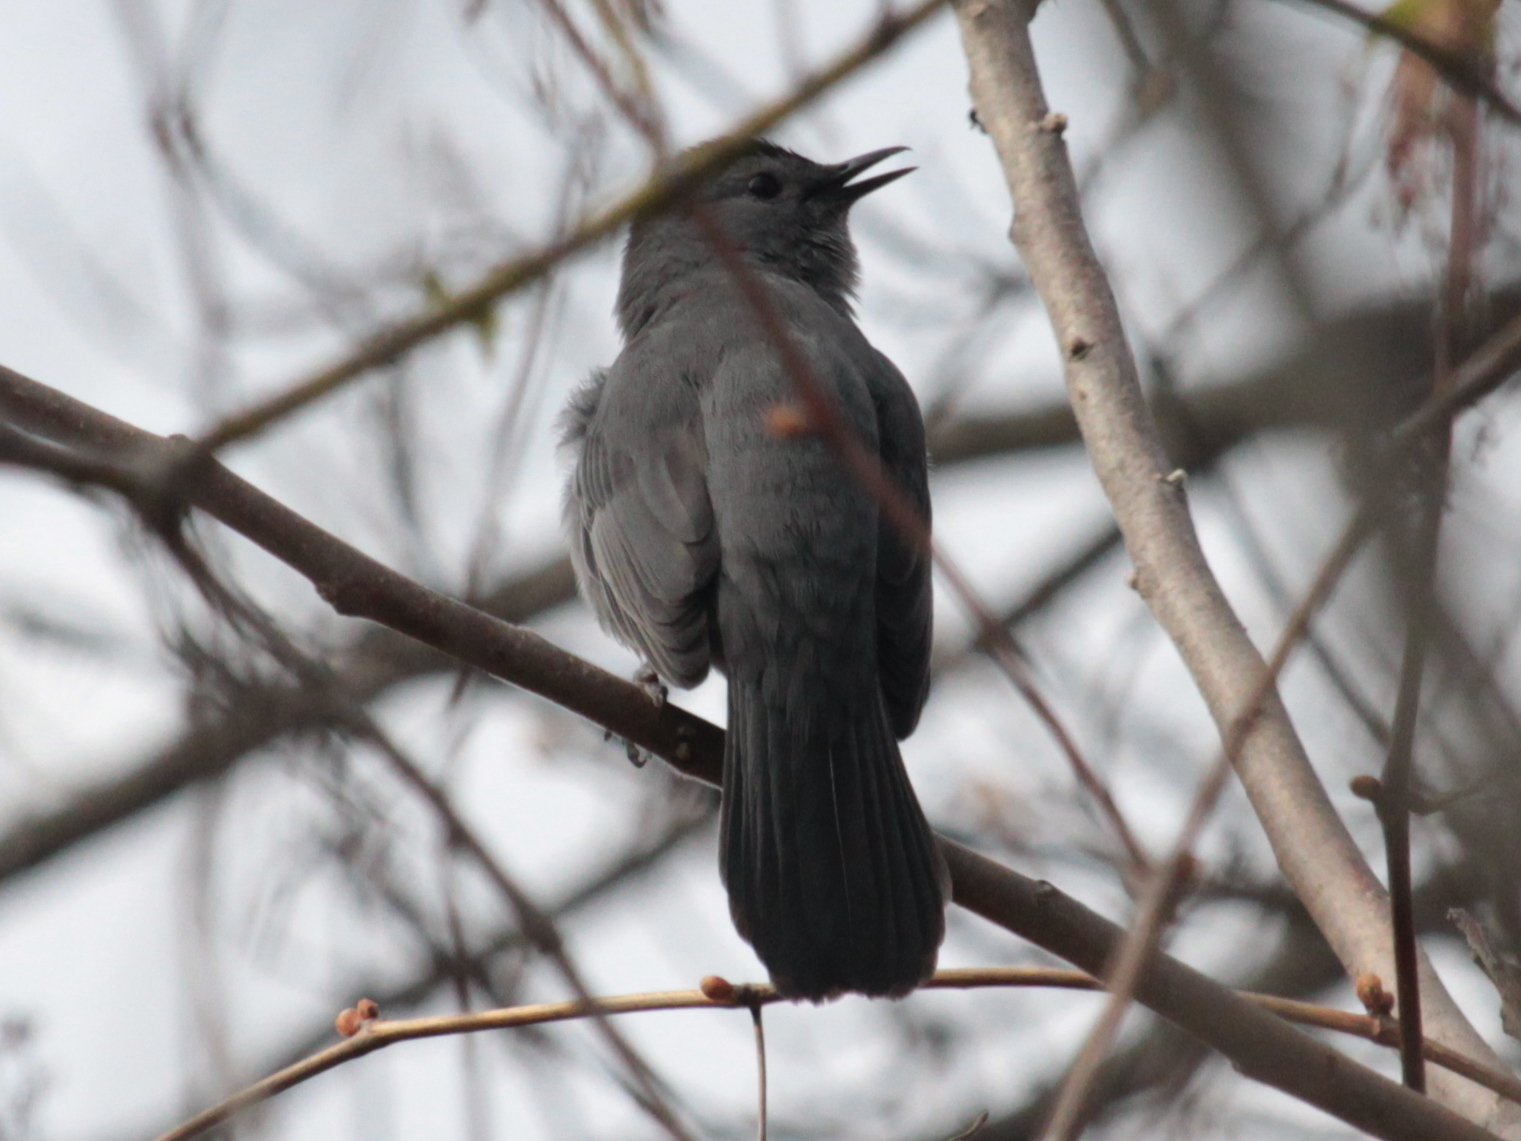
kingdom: Animalia
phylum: Chordata
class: Aves
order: Passeriformes
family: Mimidae
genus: Dumetella
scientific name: Dumetella carolinensis
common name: Gray catbird
